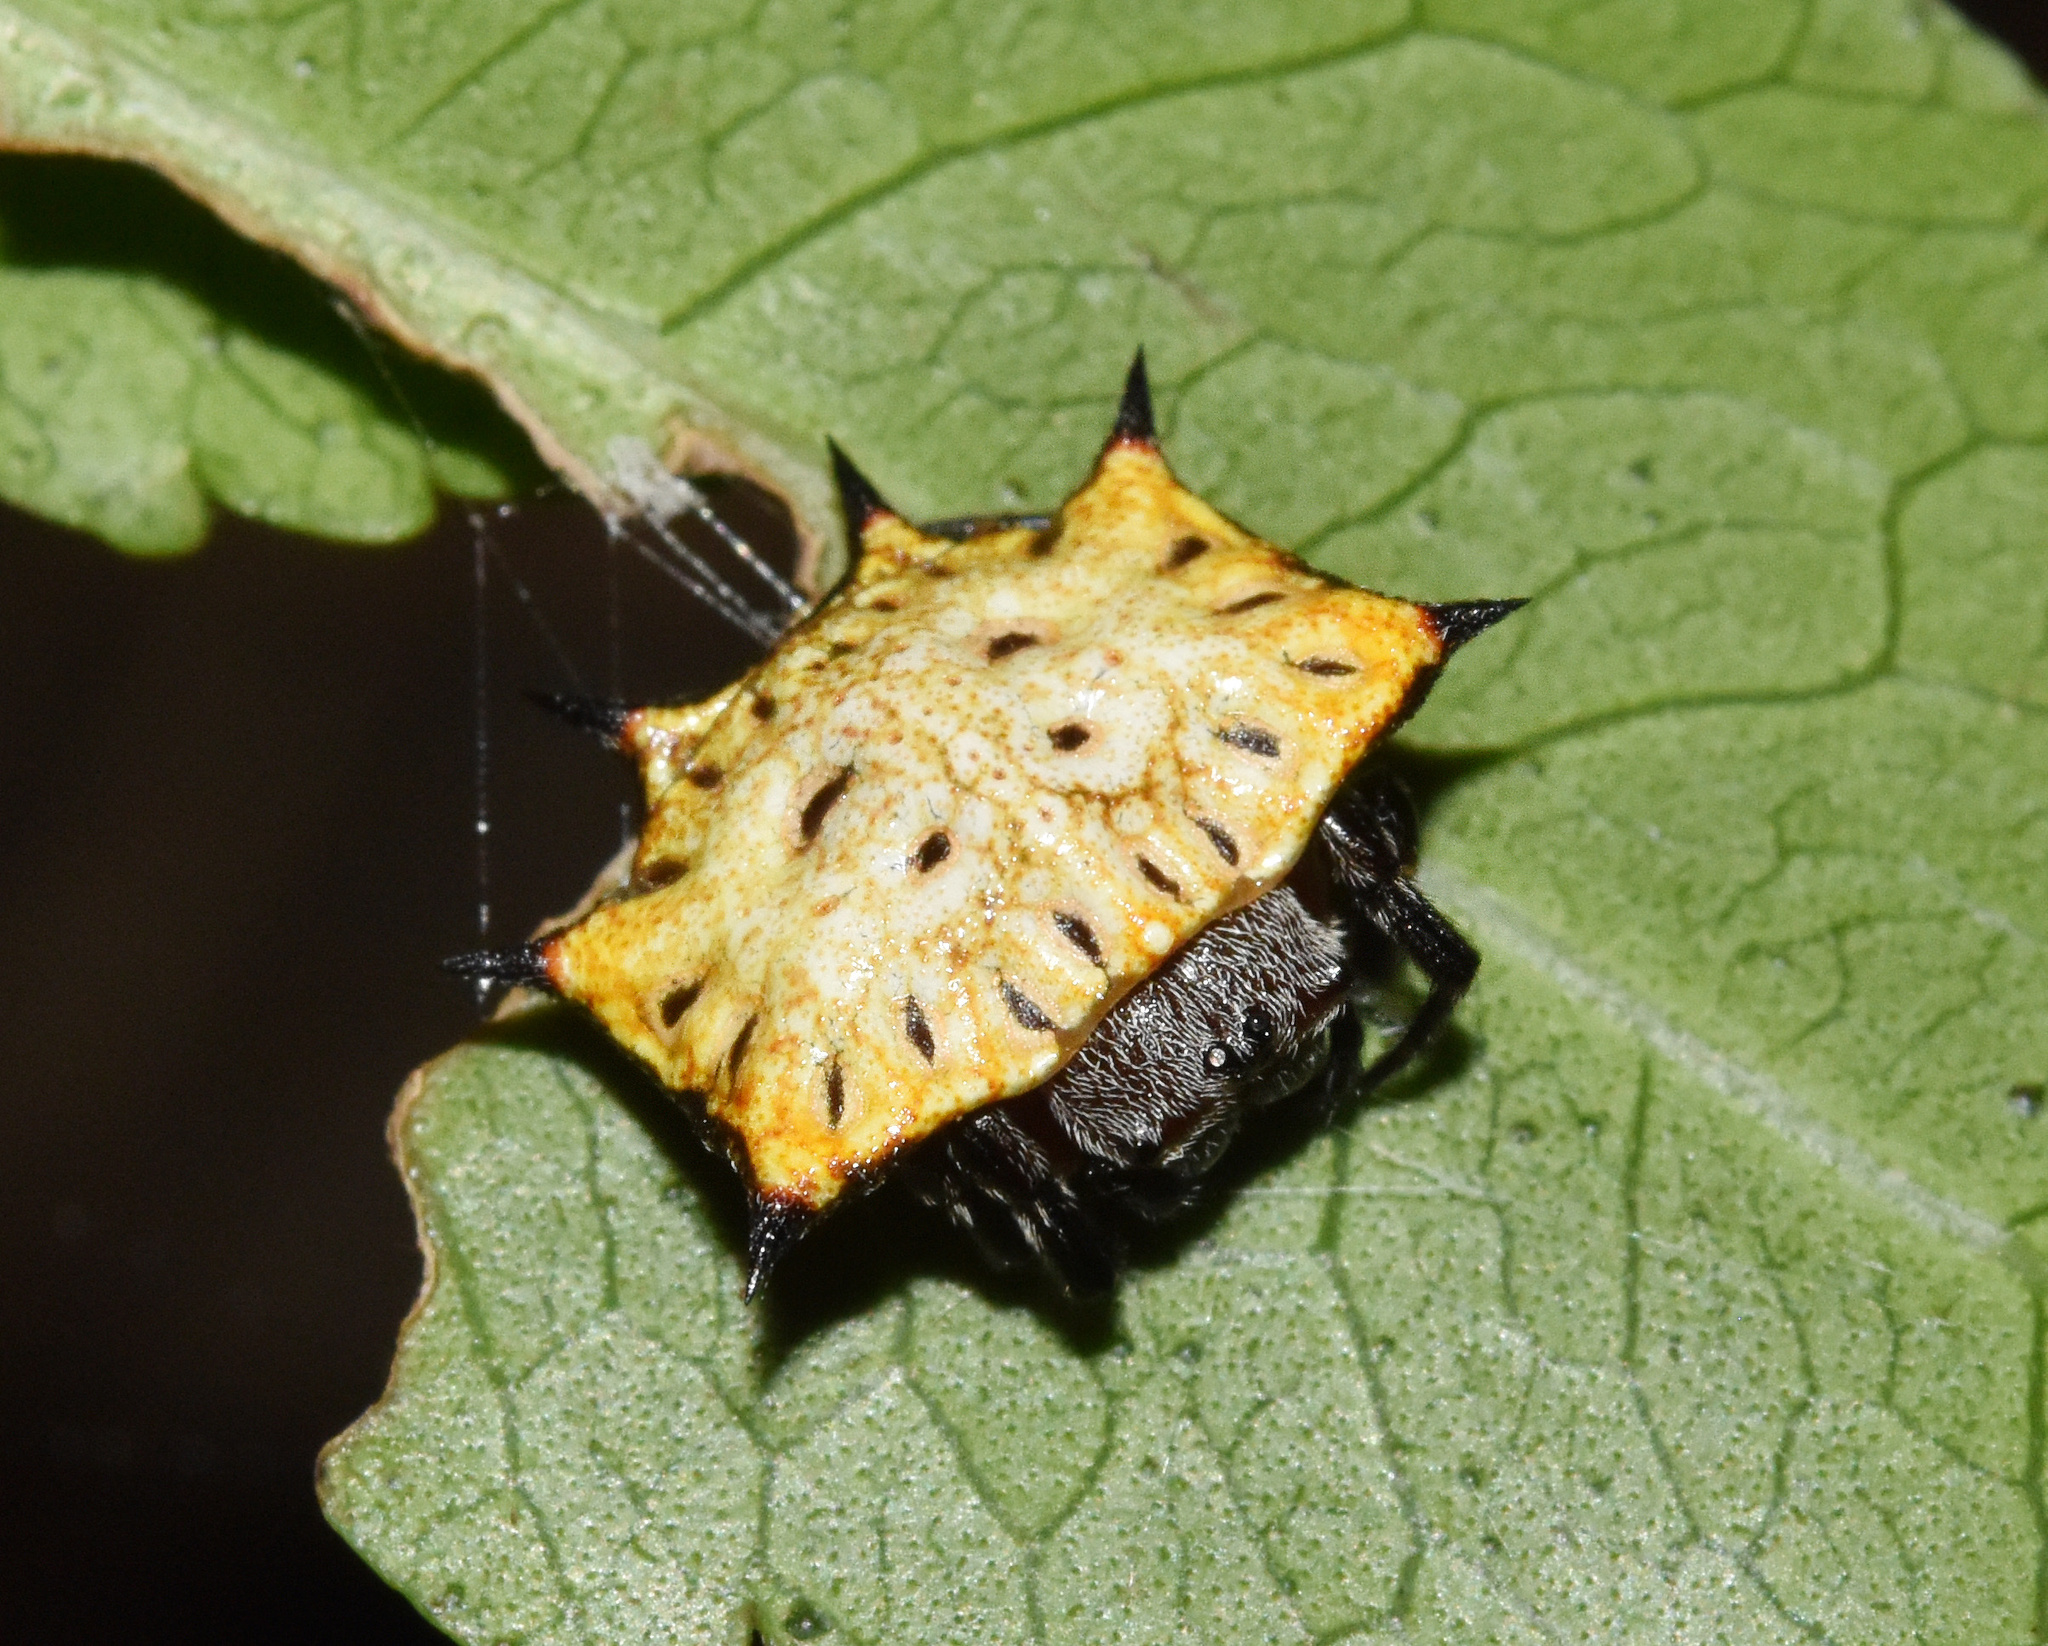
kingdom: Animalia
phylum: Arthropoda
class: Arachnida
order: Araneae
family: Araneidae
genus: Isoxya
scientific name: Isoxya tabulata
